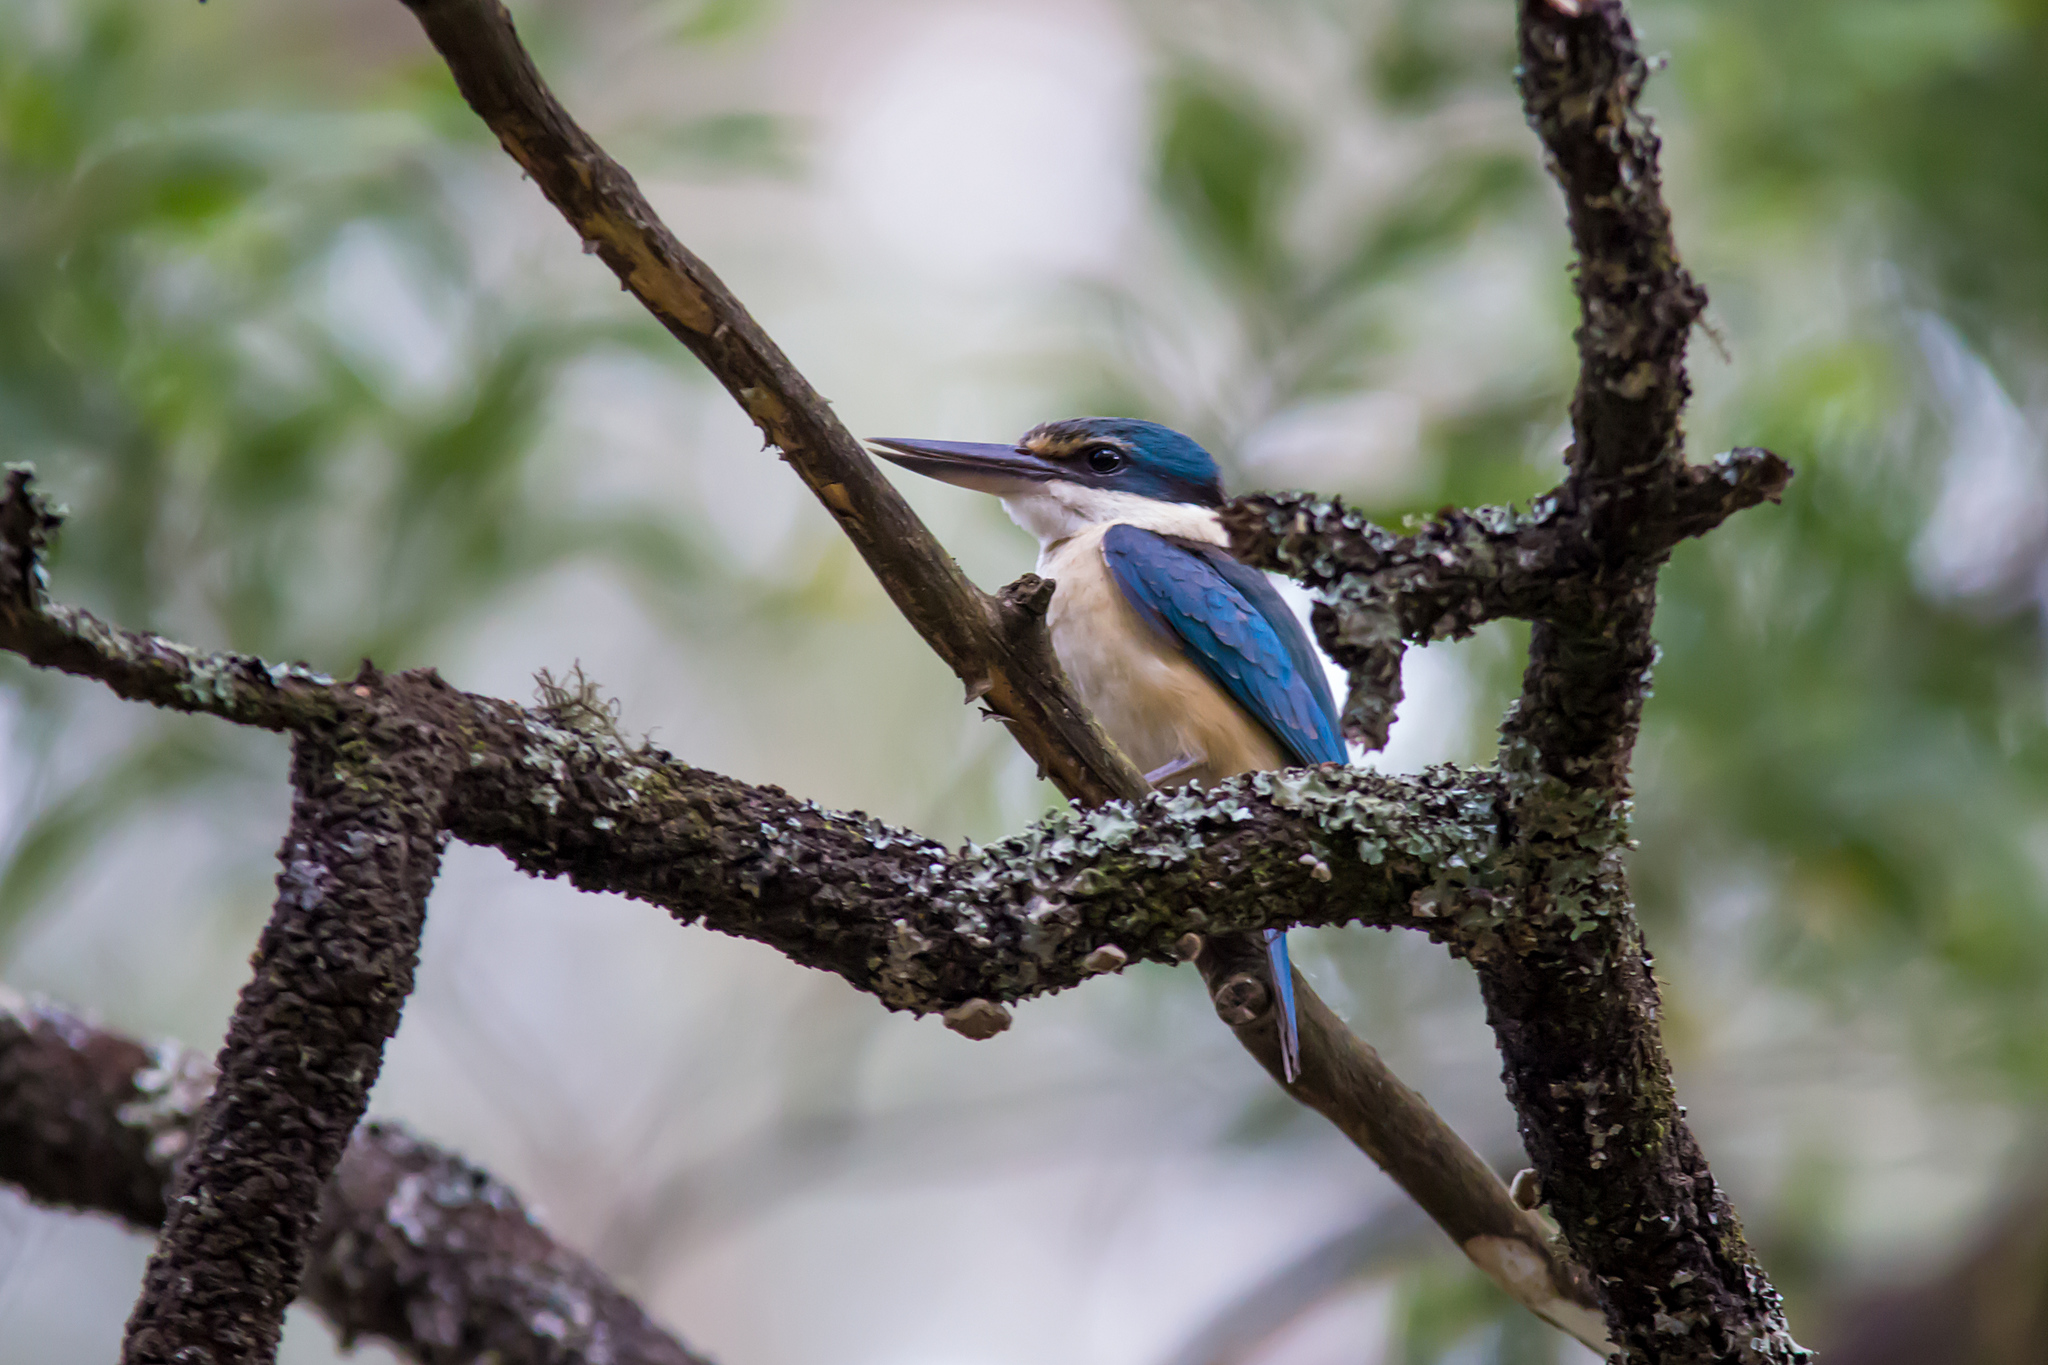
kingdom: Animalia
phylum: Chordata
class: Aves
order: Coraciiformes
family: Alcedinidae
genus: Todiramphus
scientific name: Todiramphus sanctus
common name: Sacred kingfisher
